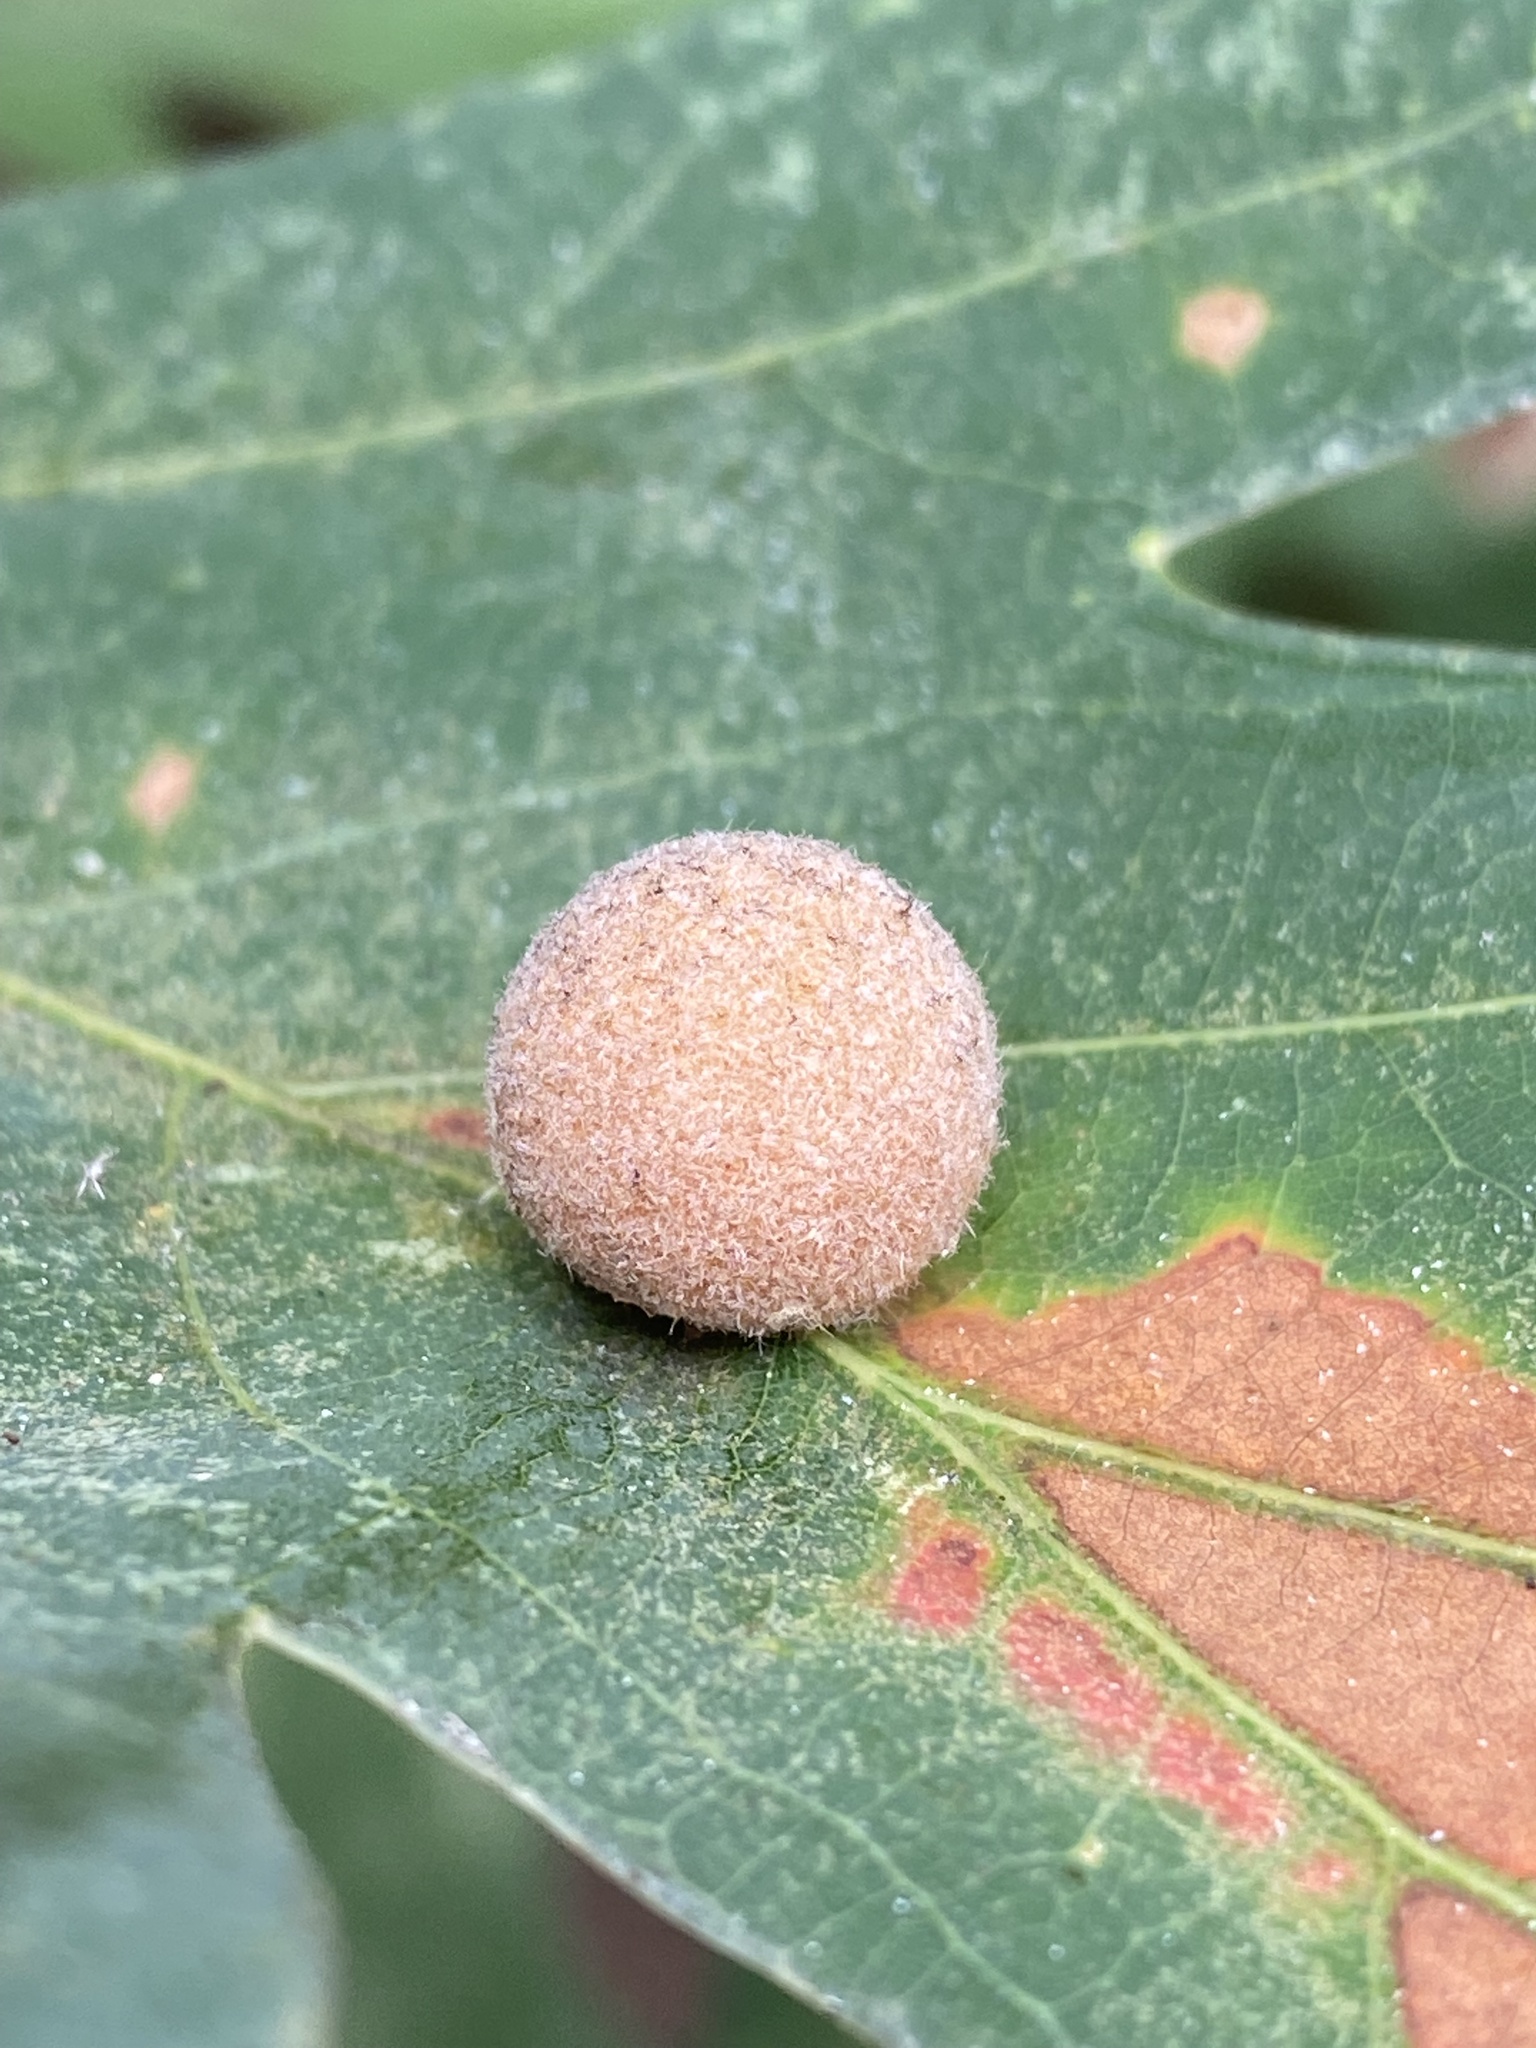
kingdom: Animalia
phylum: Arthropoda
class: Insecta
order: Hymenoptera
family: Cynipidae
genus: Philonix
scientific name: Philonix fulvicollis
